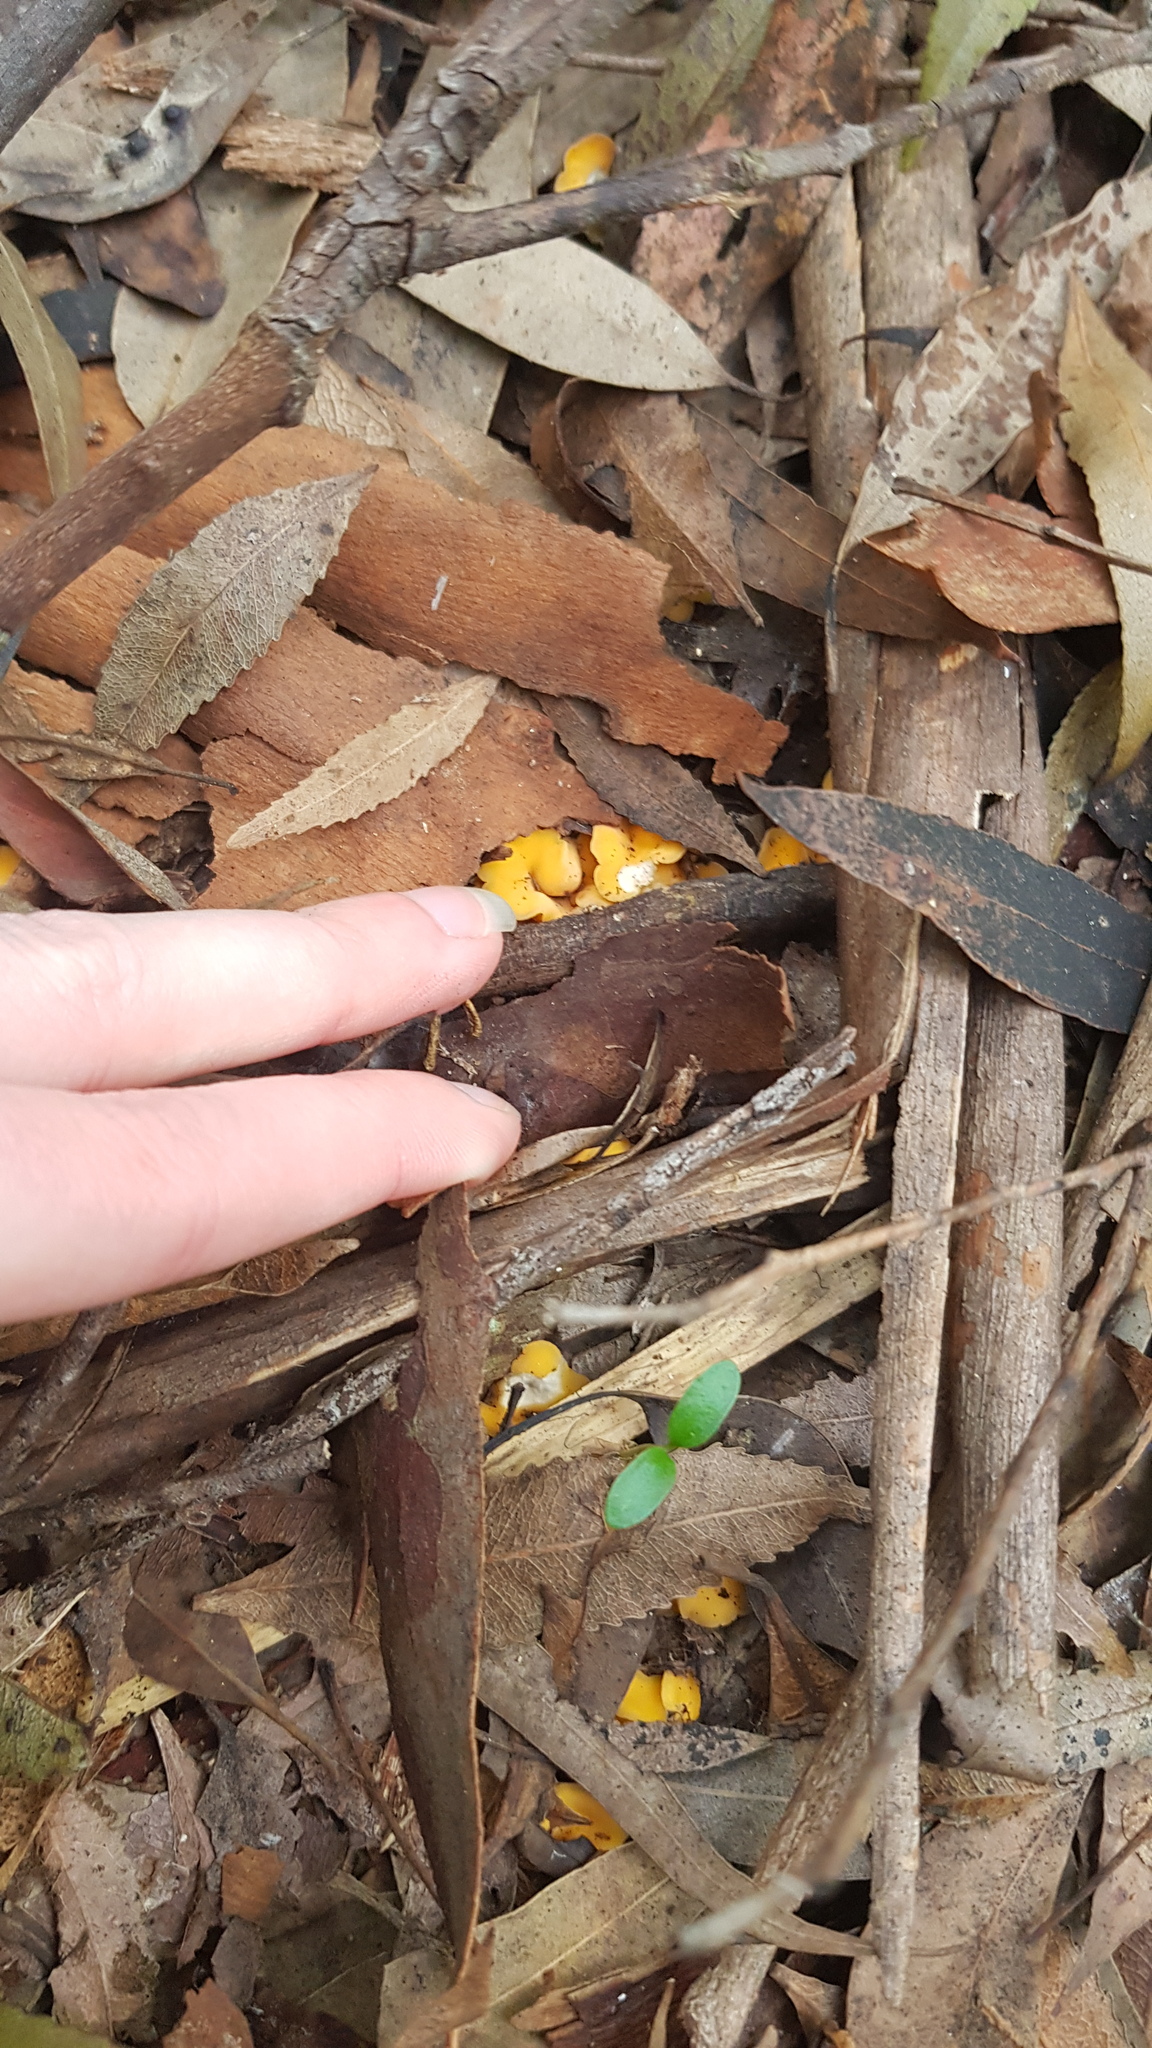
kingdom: Fungi
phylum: Ascomycota
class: Leotiomycetes
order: Helotiales
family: Helotiaceae
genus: Phaeohelotium
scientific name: Phaeohelotium baileyanum
